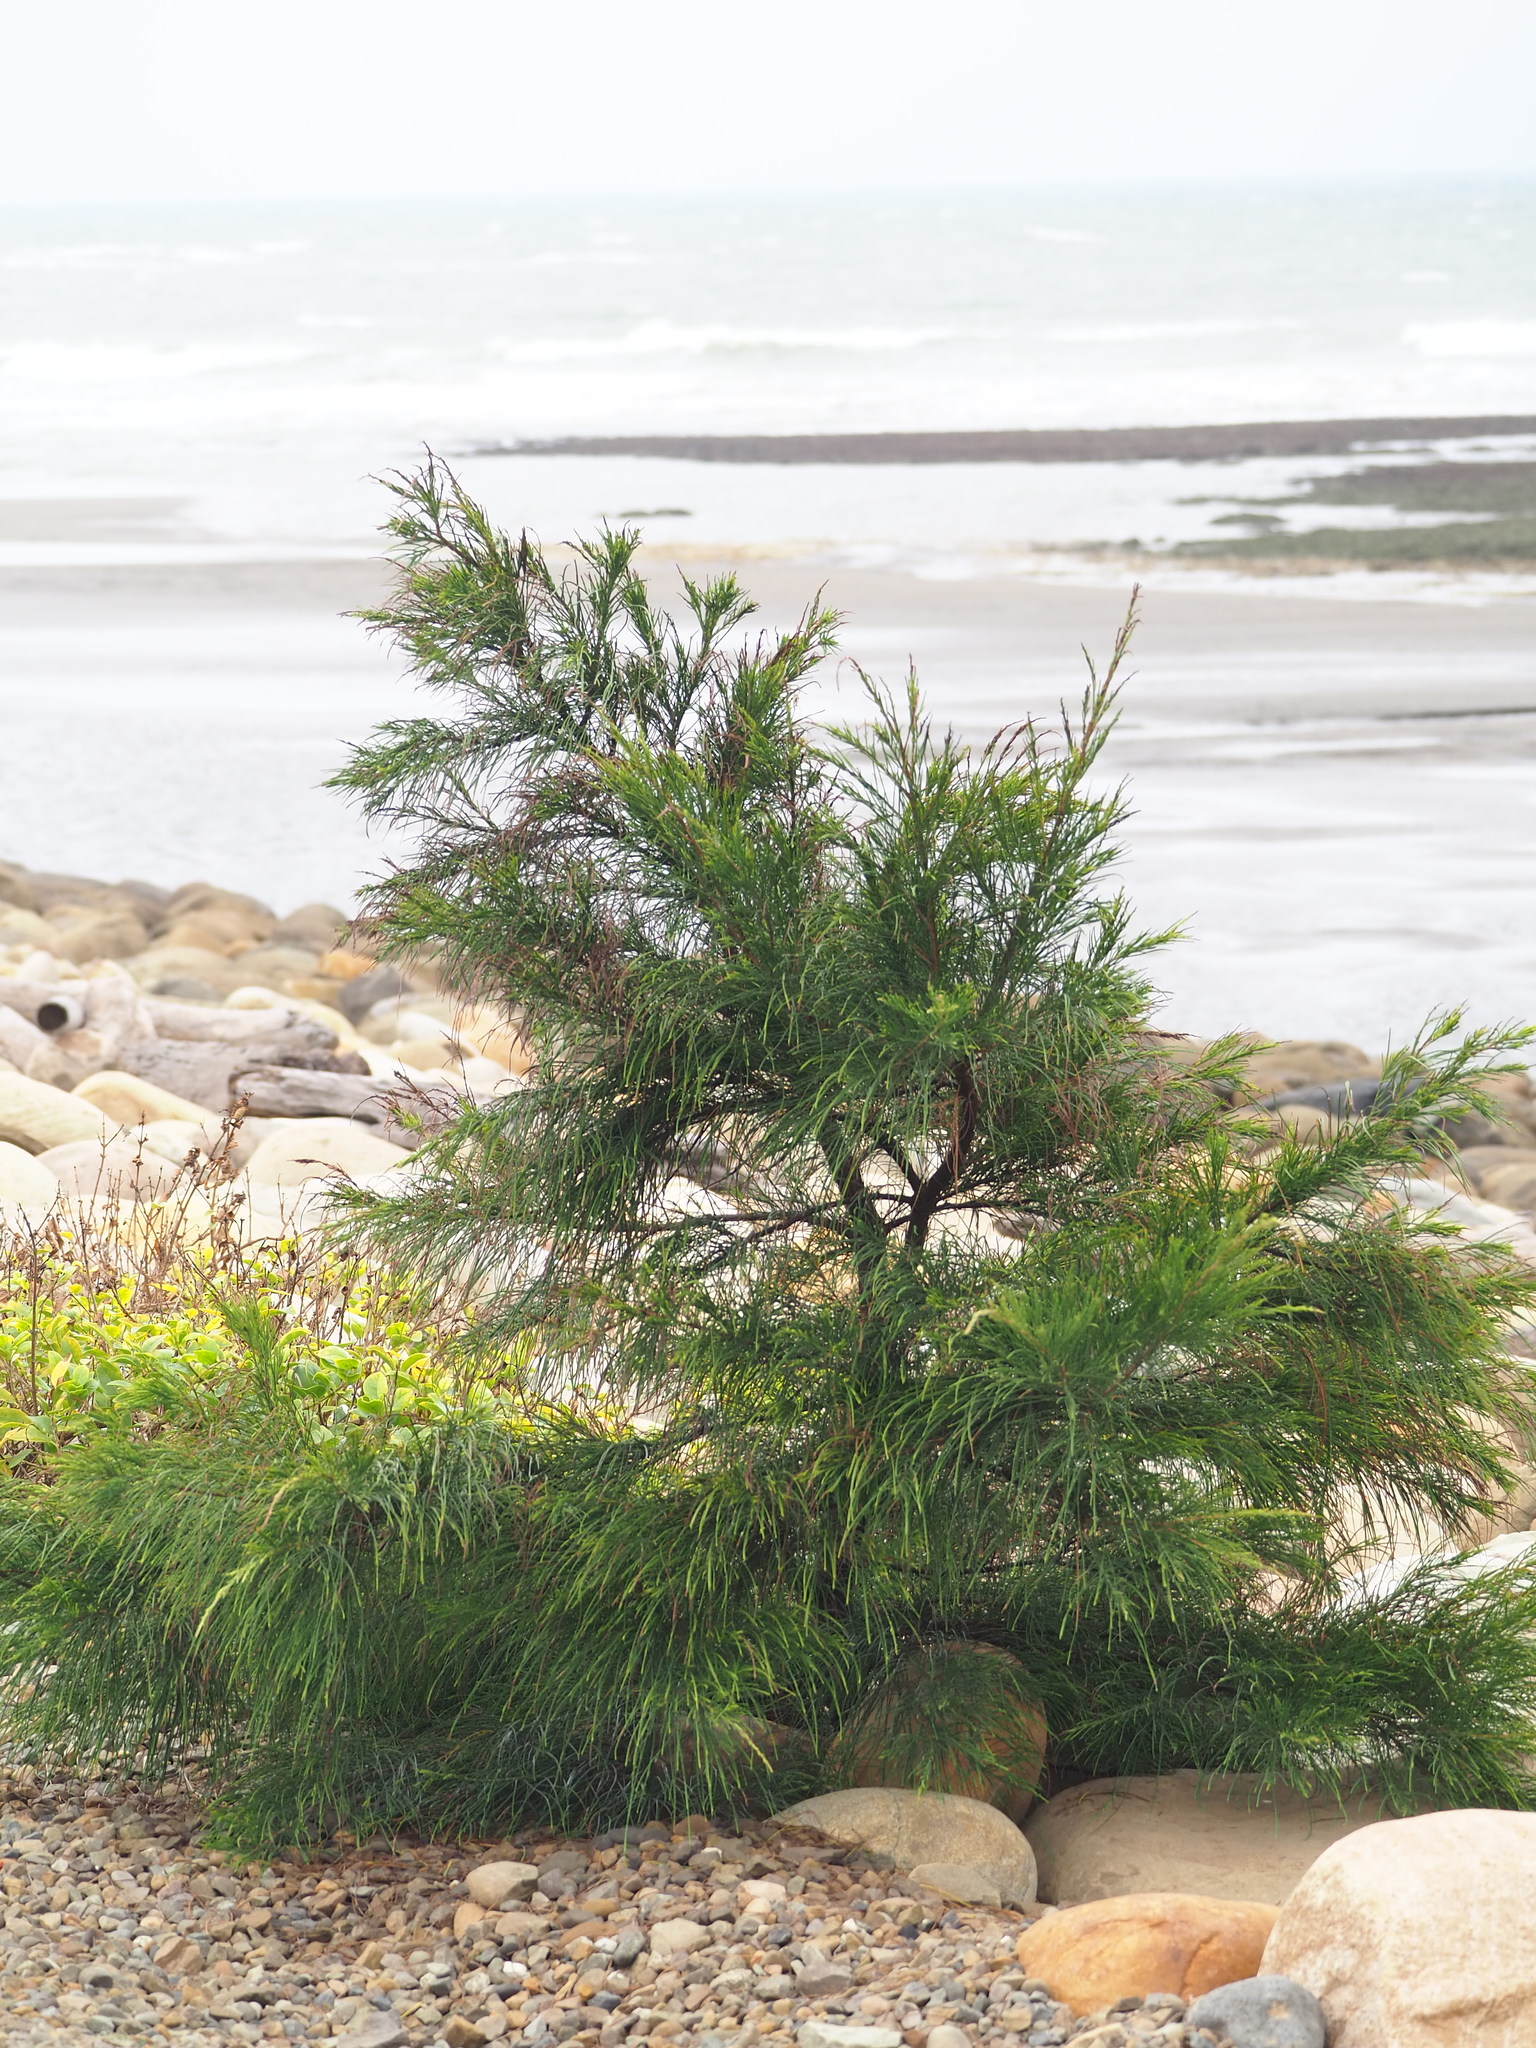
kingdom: Plantae
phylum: Tracheophyta
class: Magnoliopsida
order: Fagales
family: Casuarinaceae
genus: Casuarina
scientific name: Casuarina equisetifolia
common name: Beach sheoak
